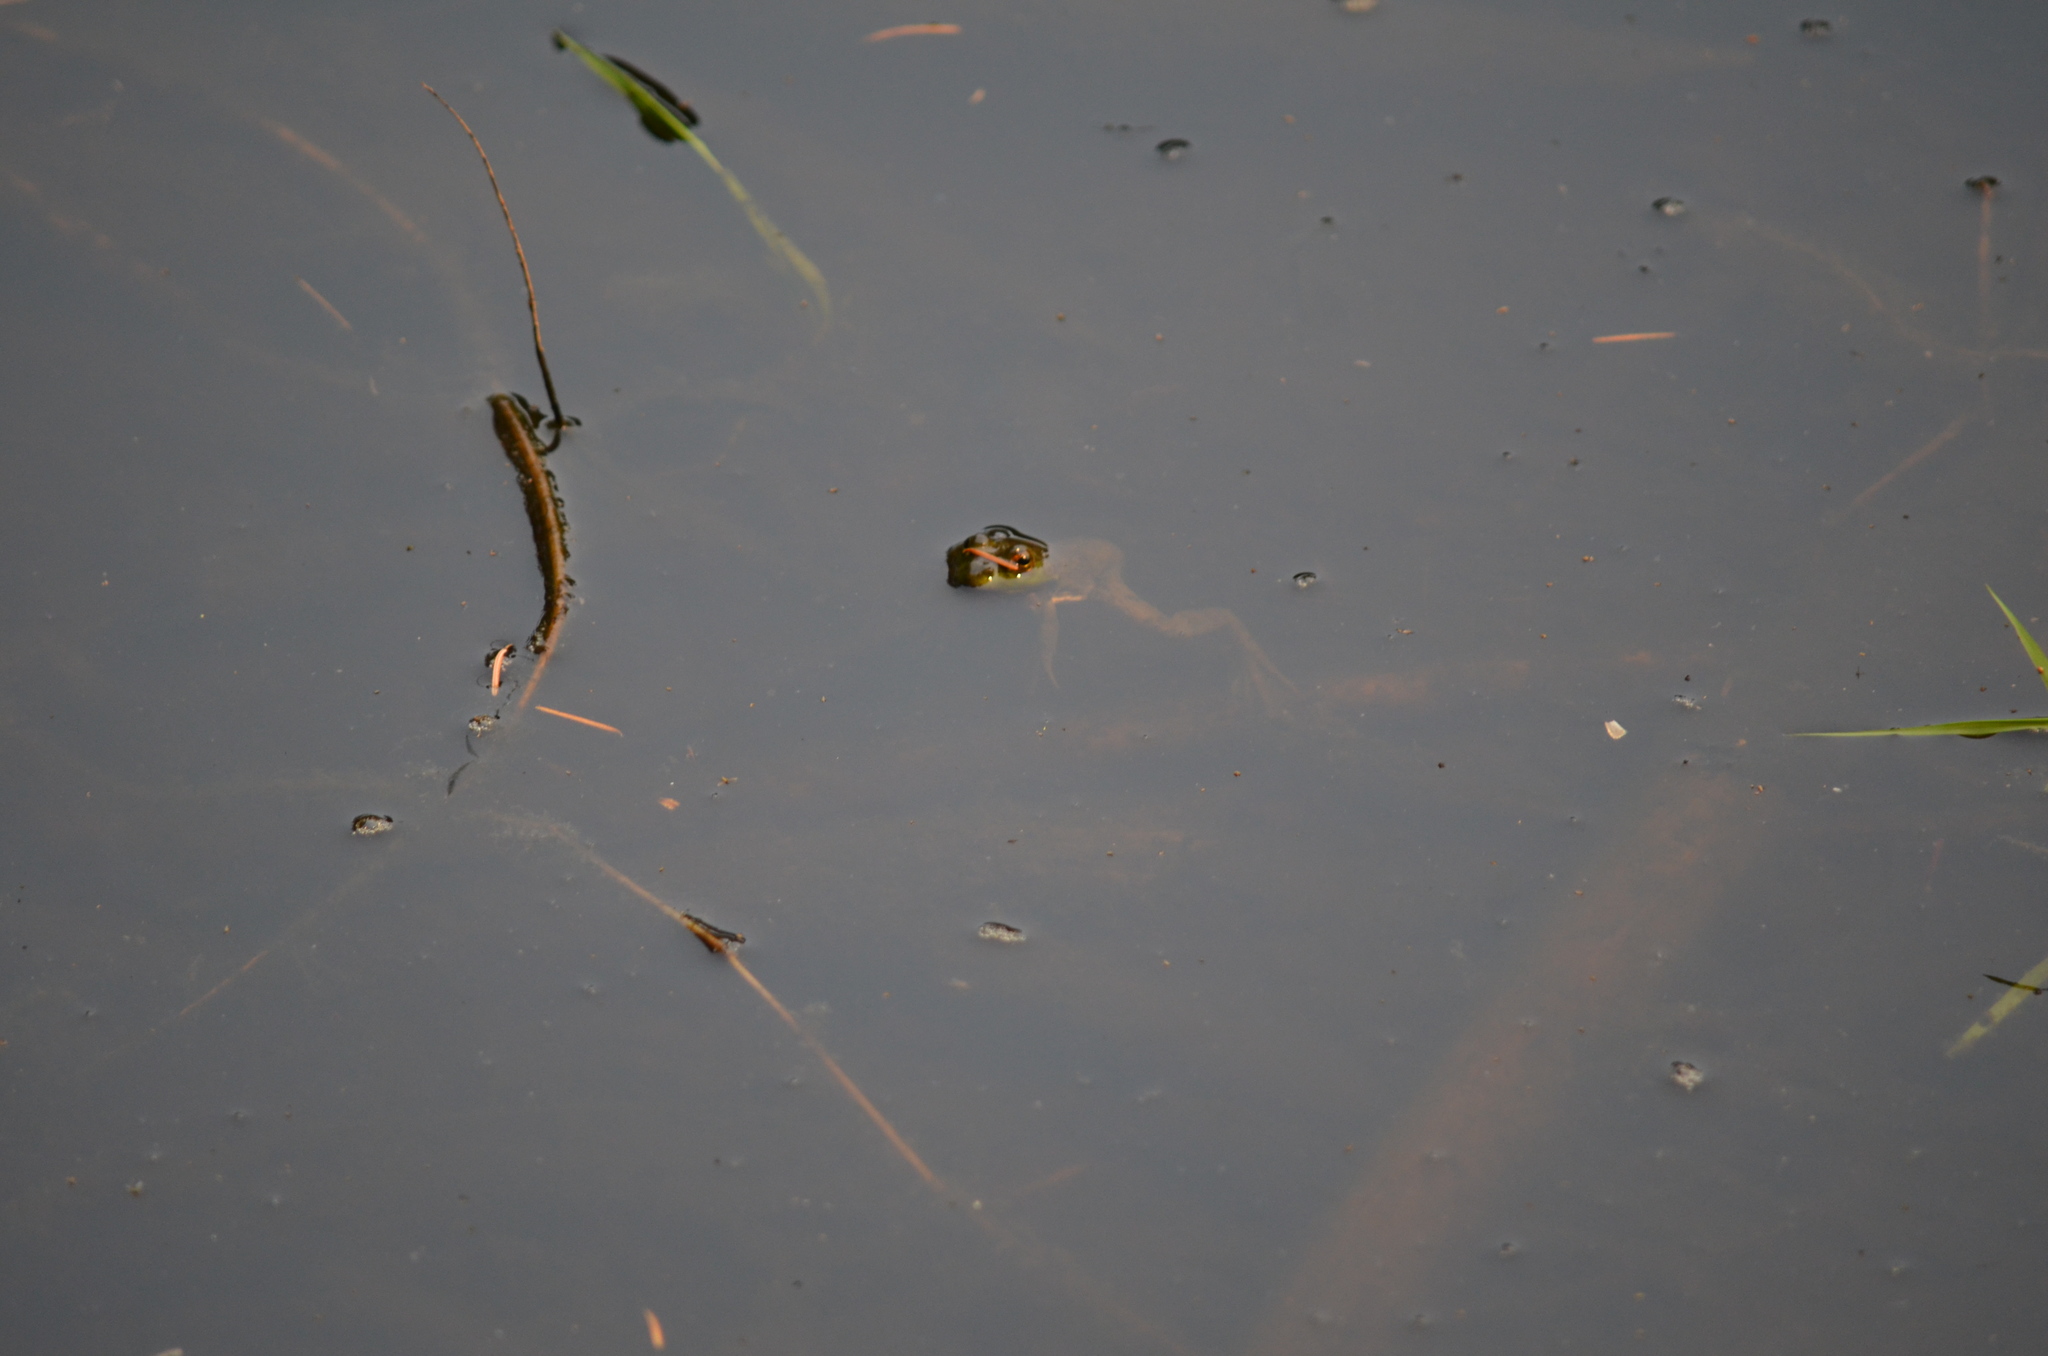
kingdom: Animalia
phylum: Chordata
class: Amphibia
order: Anura
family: Ranidae
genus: Lithobates
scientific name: Lithobates catesbeianus
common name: American bullfrog
